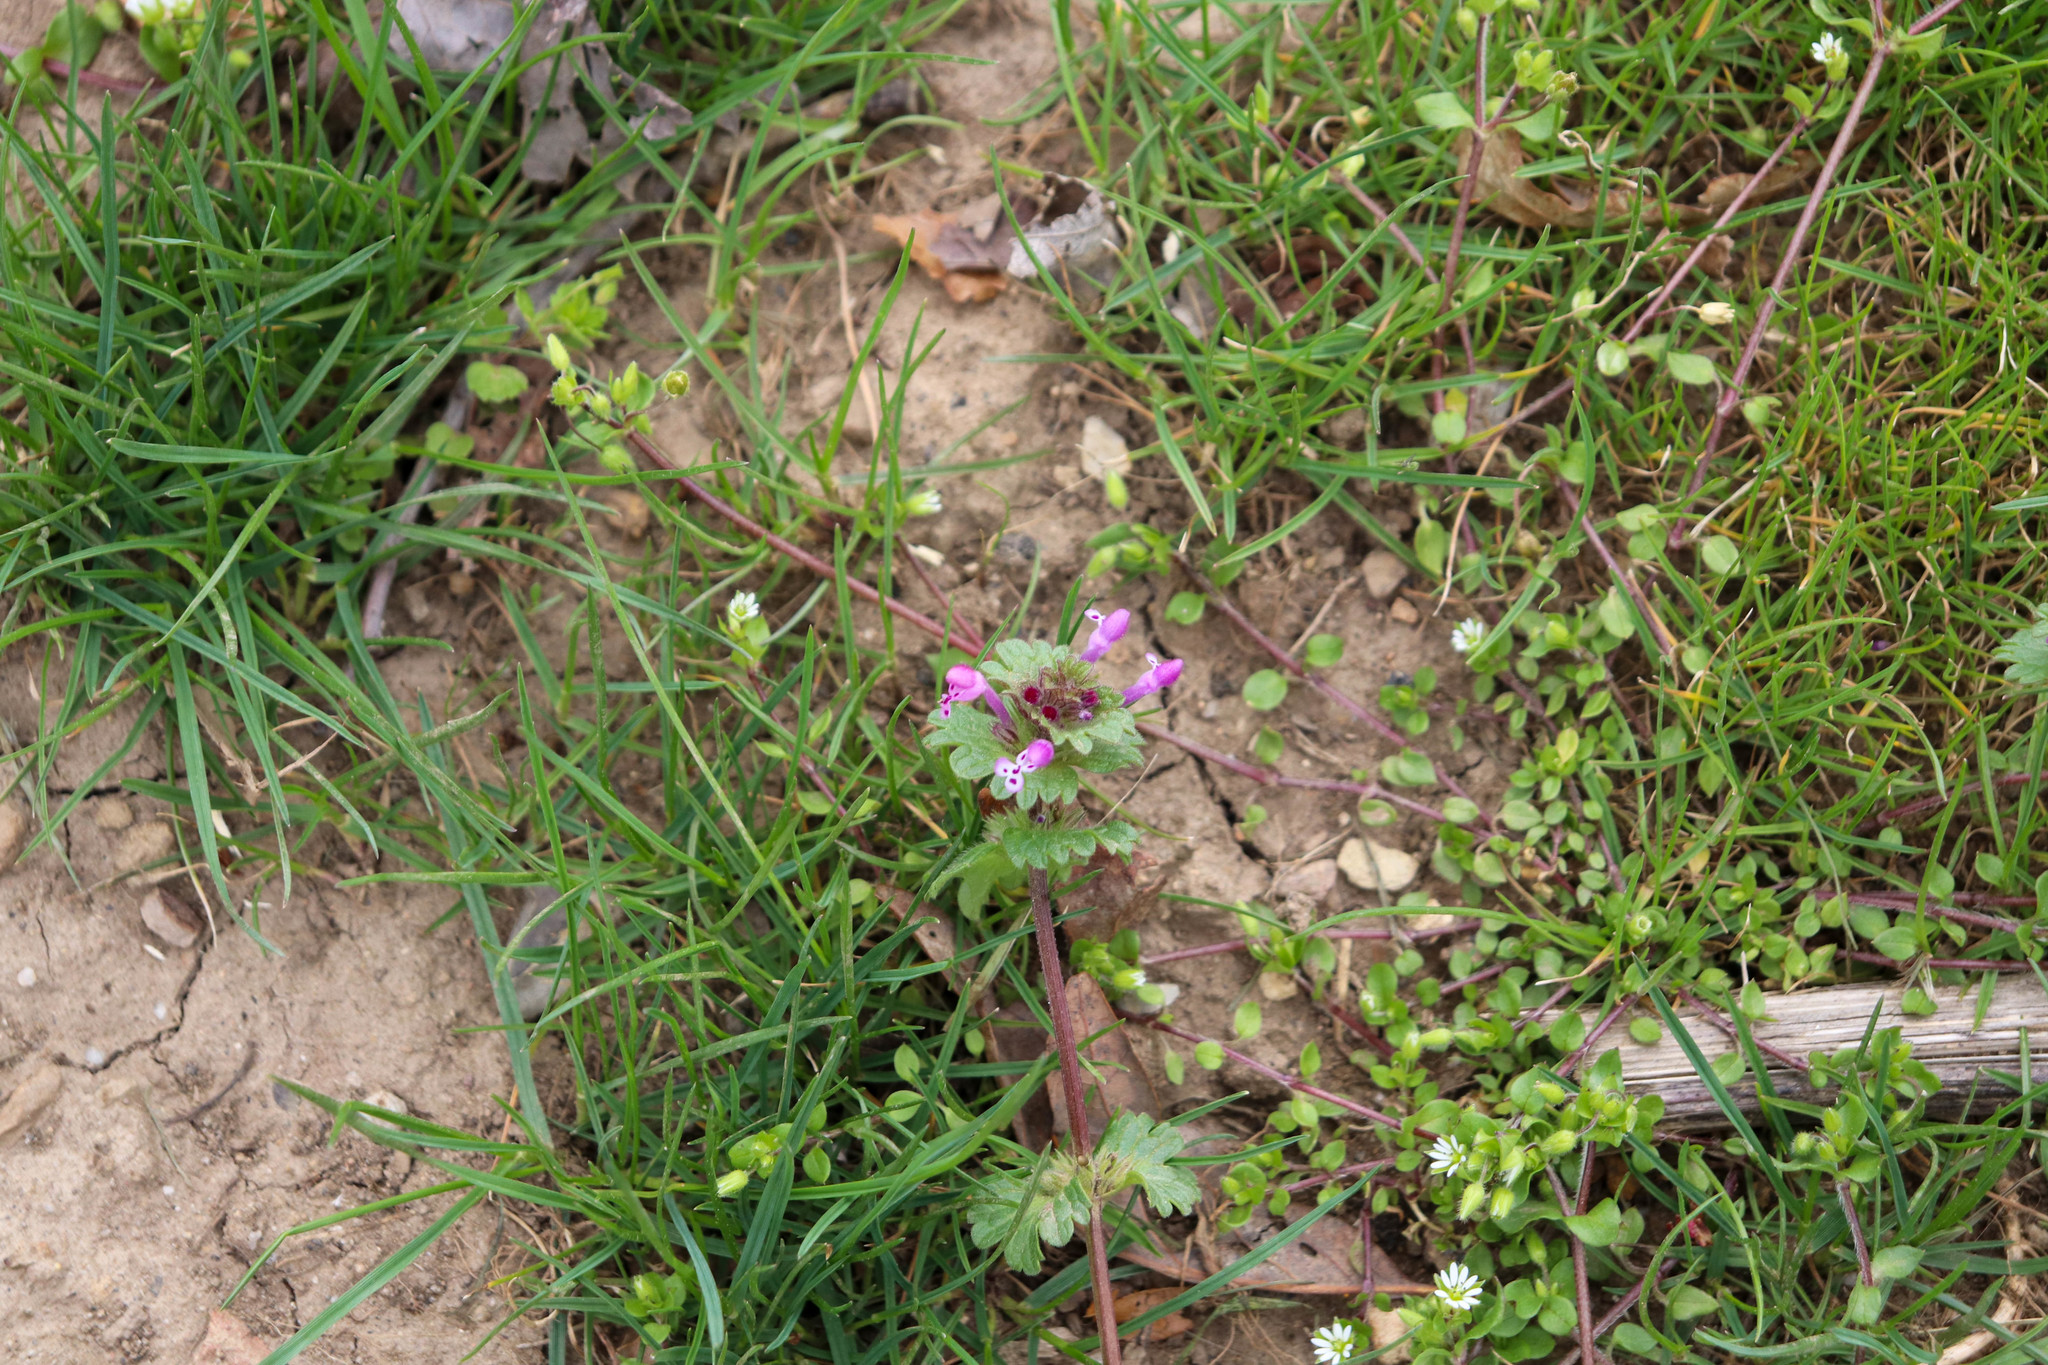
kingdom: Plantae
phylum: Tracheophyta
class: Magnoliopsida
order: Lamiales
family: Lamiaceae
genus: Lamium
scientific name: Lamium amplexicaule
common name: Henbit dead-nettle
